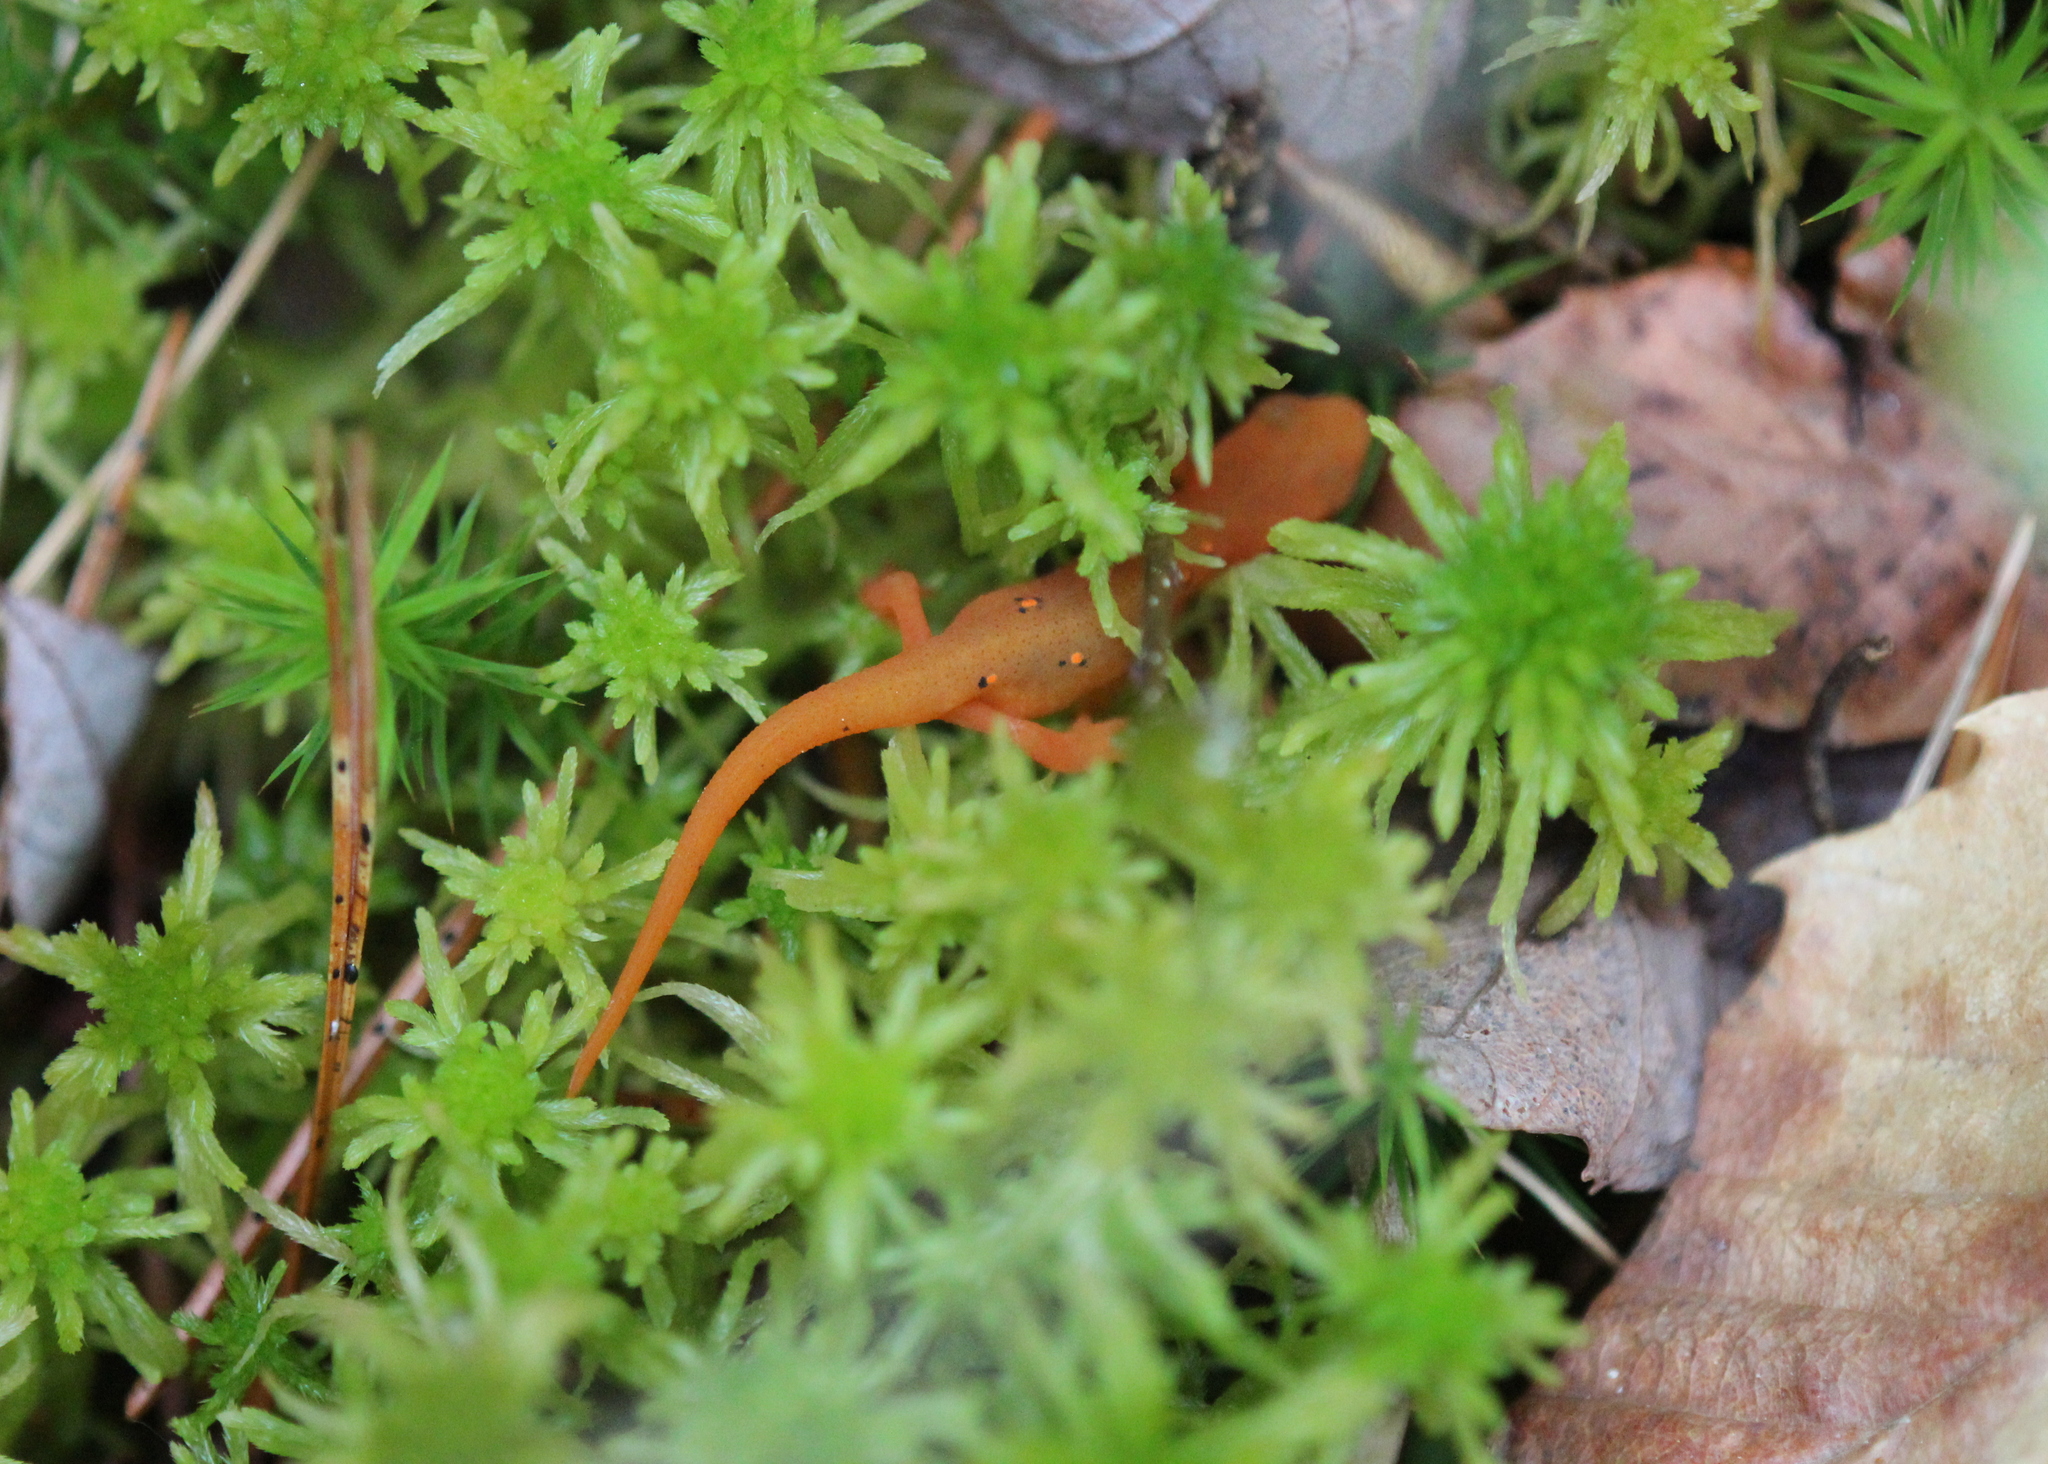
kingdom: Animalia
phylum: Chordata
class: Amphibia
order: Caudata
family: Salamandridae
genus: Notophthalmus
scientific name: Notophthalmus viridescens
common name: Eastern newt
